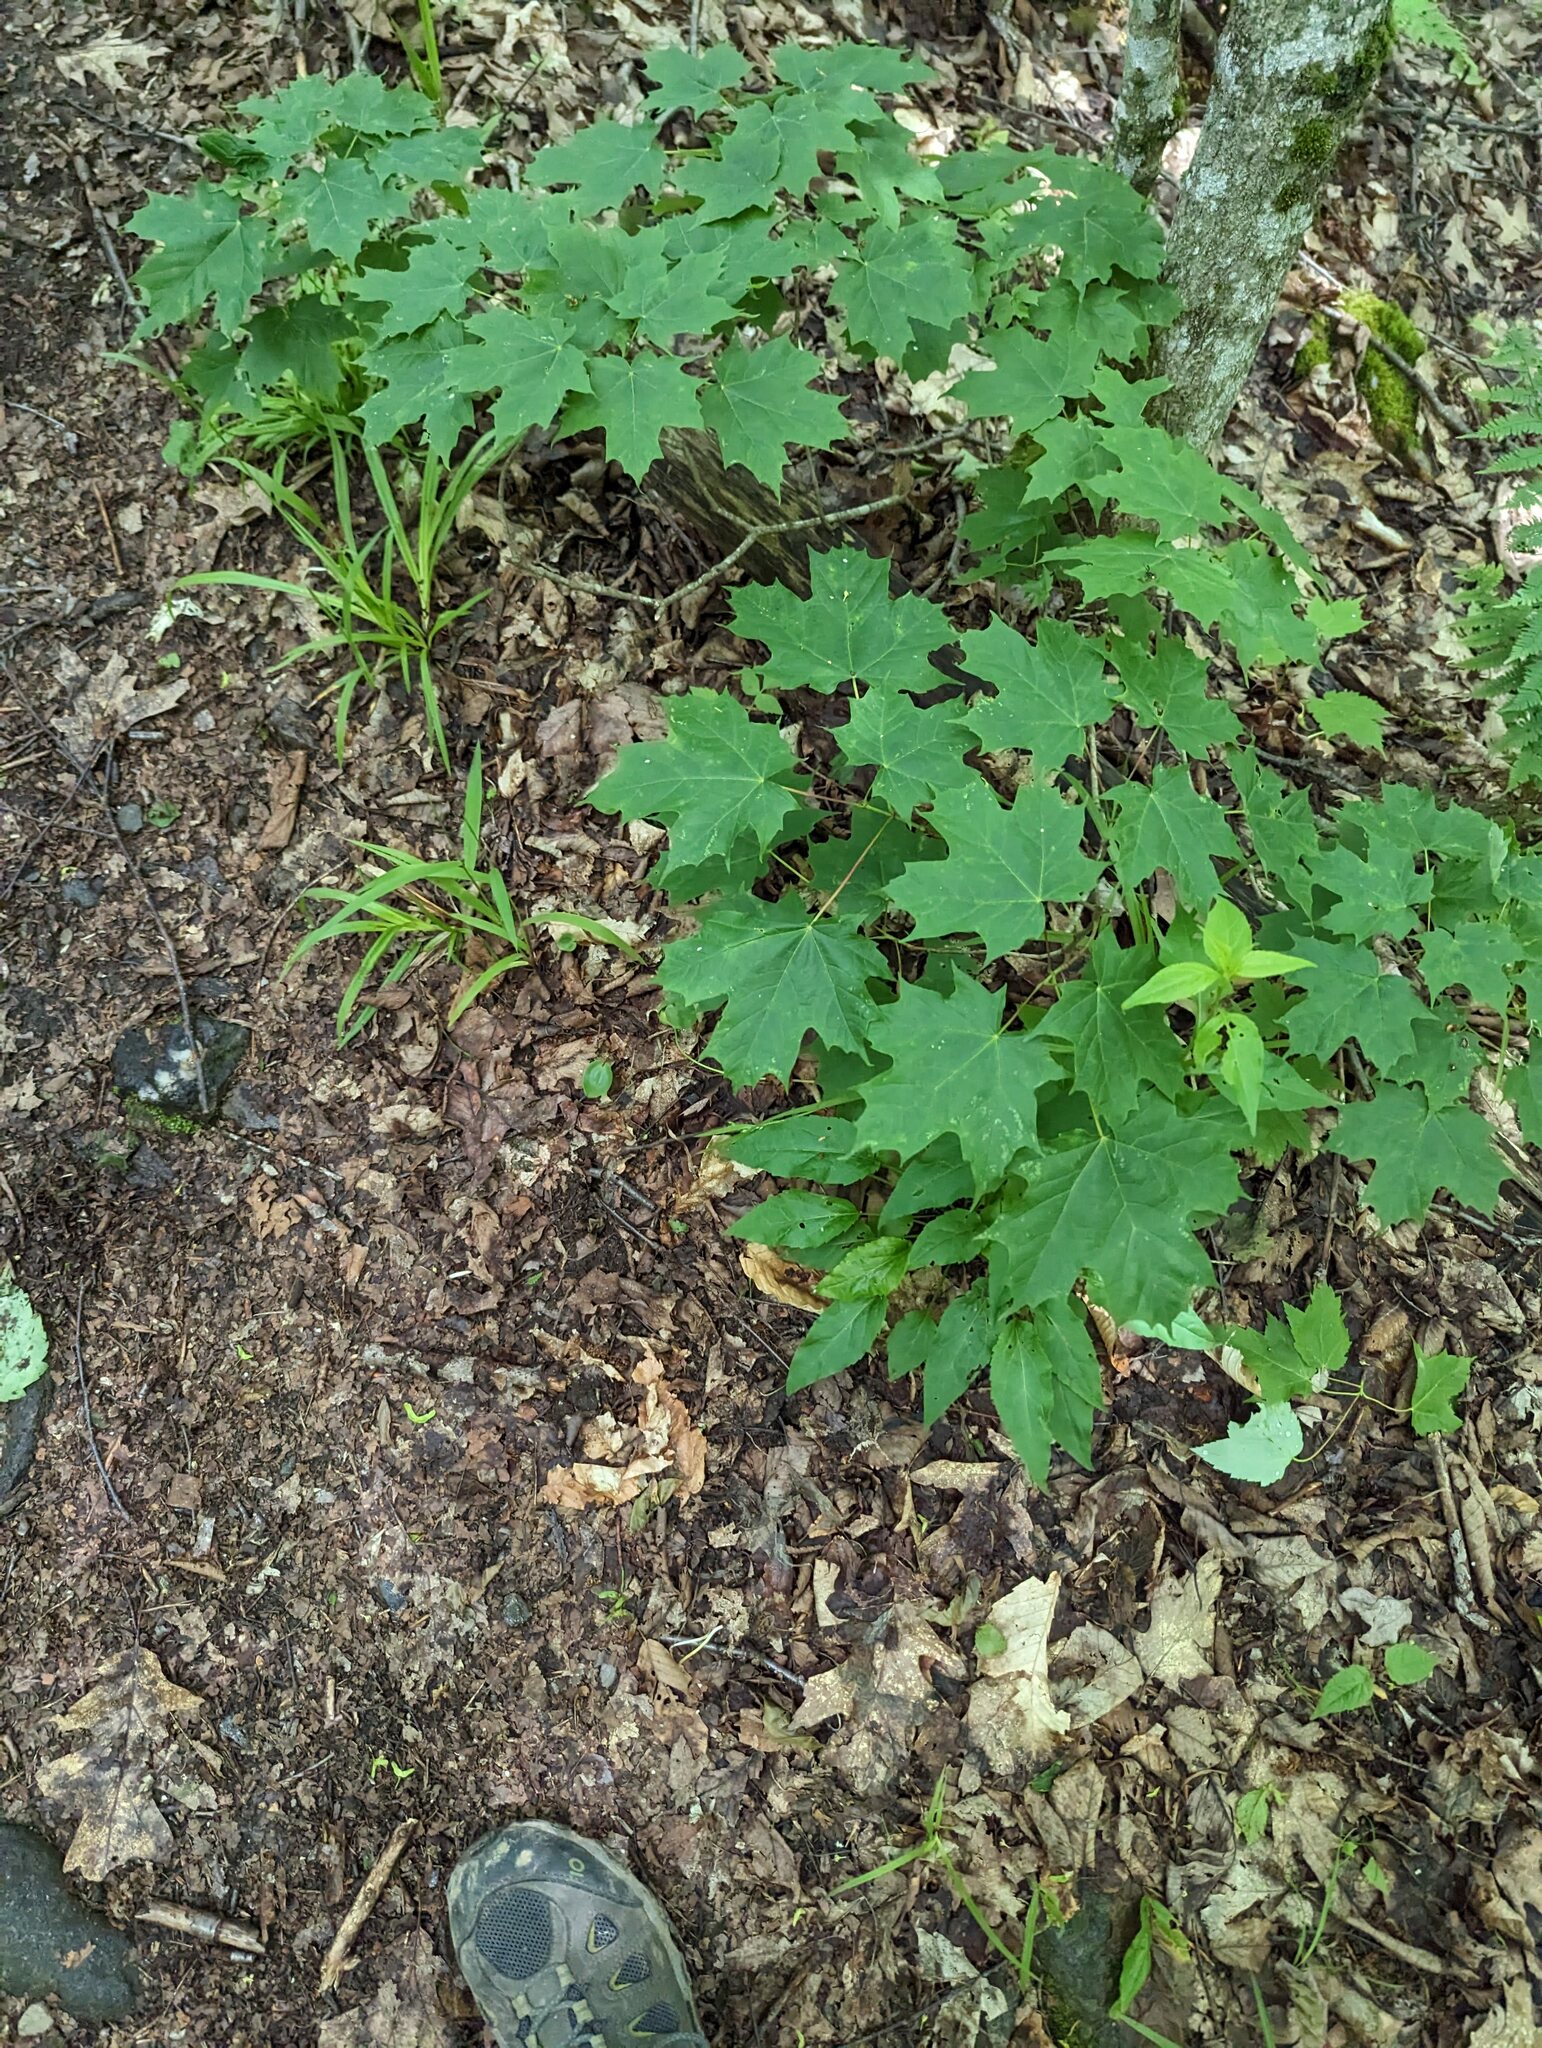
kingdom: Plantae
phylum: Tracheophyta
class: Magnoliopsida
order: Sapindales
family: Sapindaceae
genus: Acer
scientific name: Acer saccharum
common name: Sugar maple
